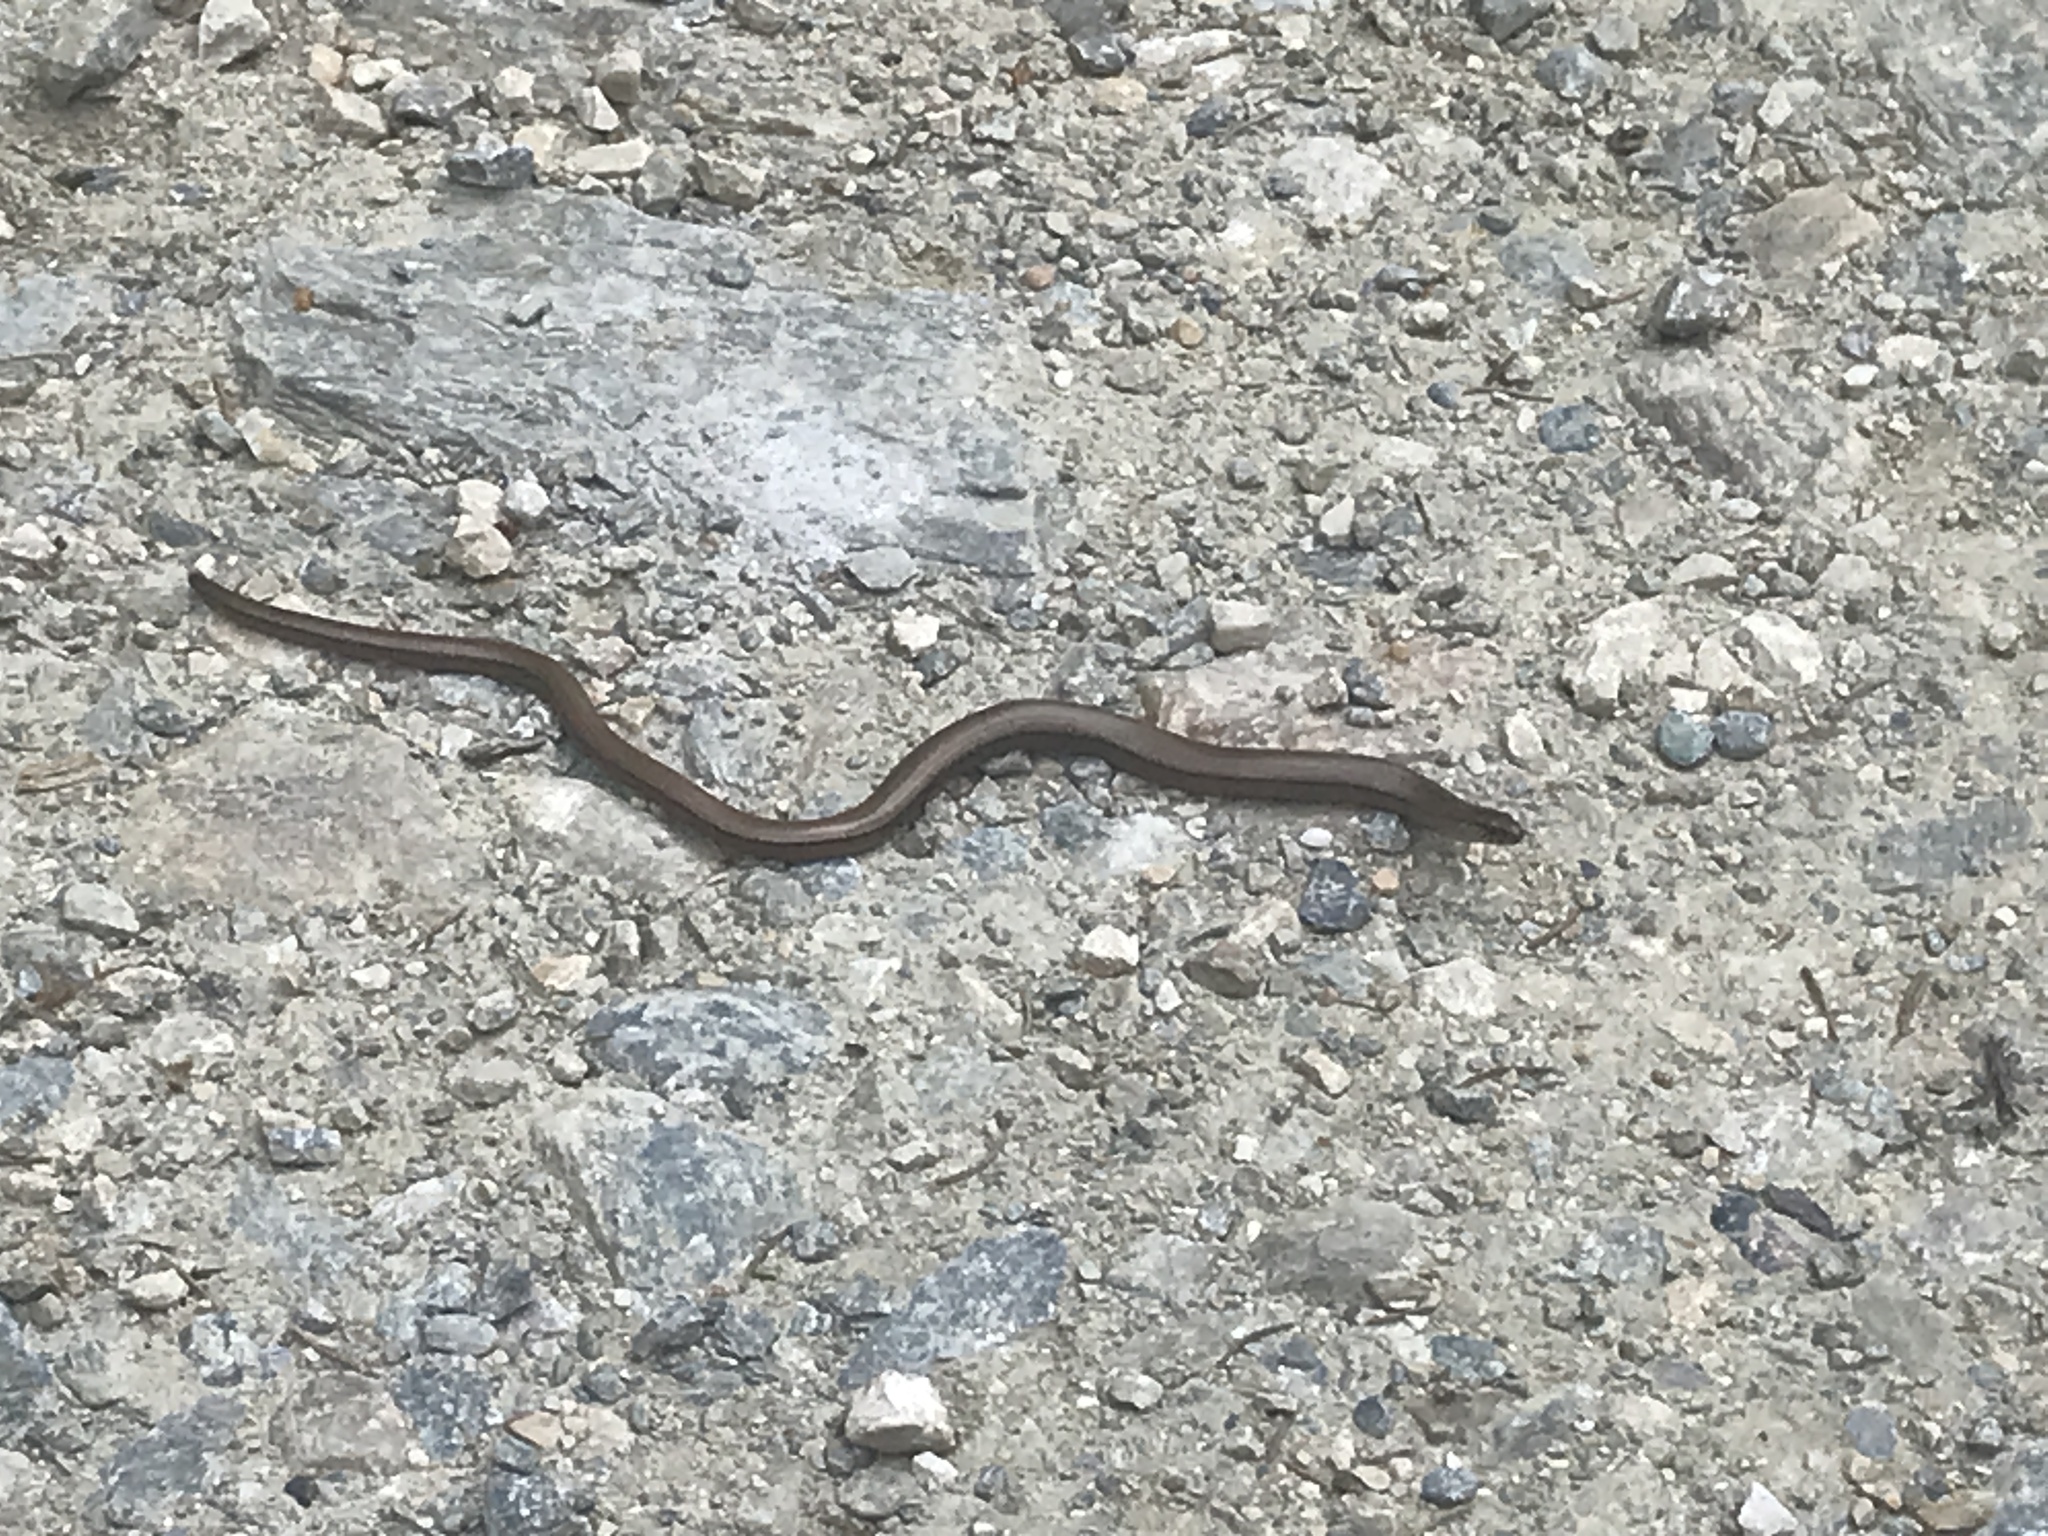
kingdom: Animalia
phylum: Chordata
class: Squamata
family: Anguidae
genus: Anguis
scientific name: Anguis fragilis
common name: Slow worm
